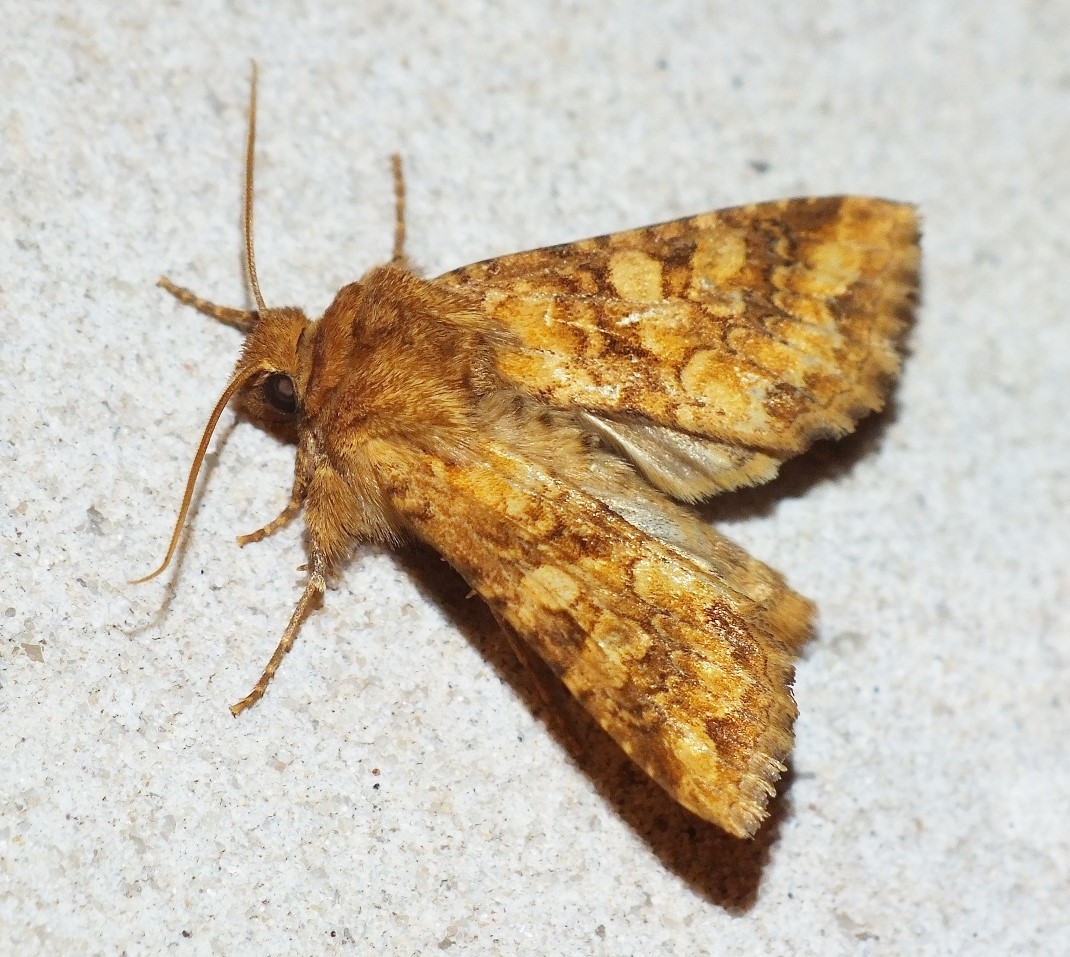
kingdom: Animalia
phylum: Arthropoda
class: Insecta
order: Lepidoptera
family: Noctuidae
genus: Conisania
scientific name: Conisania luteago
